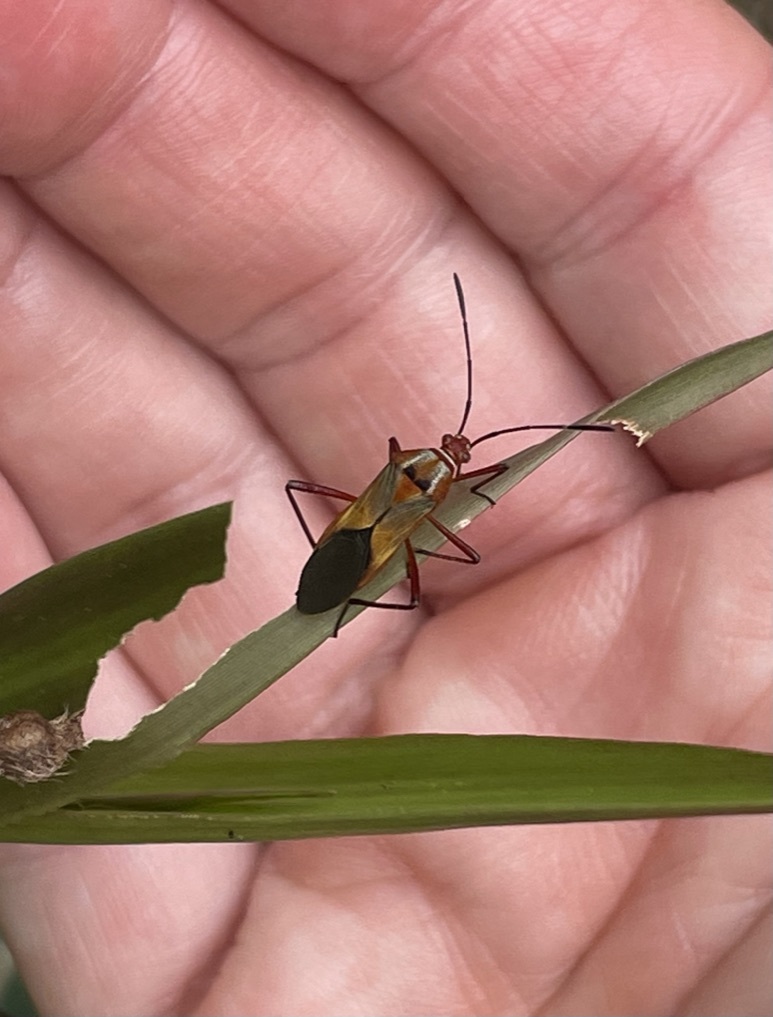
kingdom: Animalia
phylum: Arthropoda
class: Insecta
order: Hemiptera
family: Coreidae
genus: Hypselonotus
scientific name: Hypselonotus interruptus
